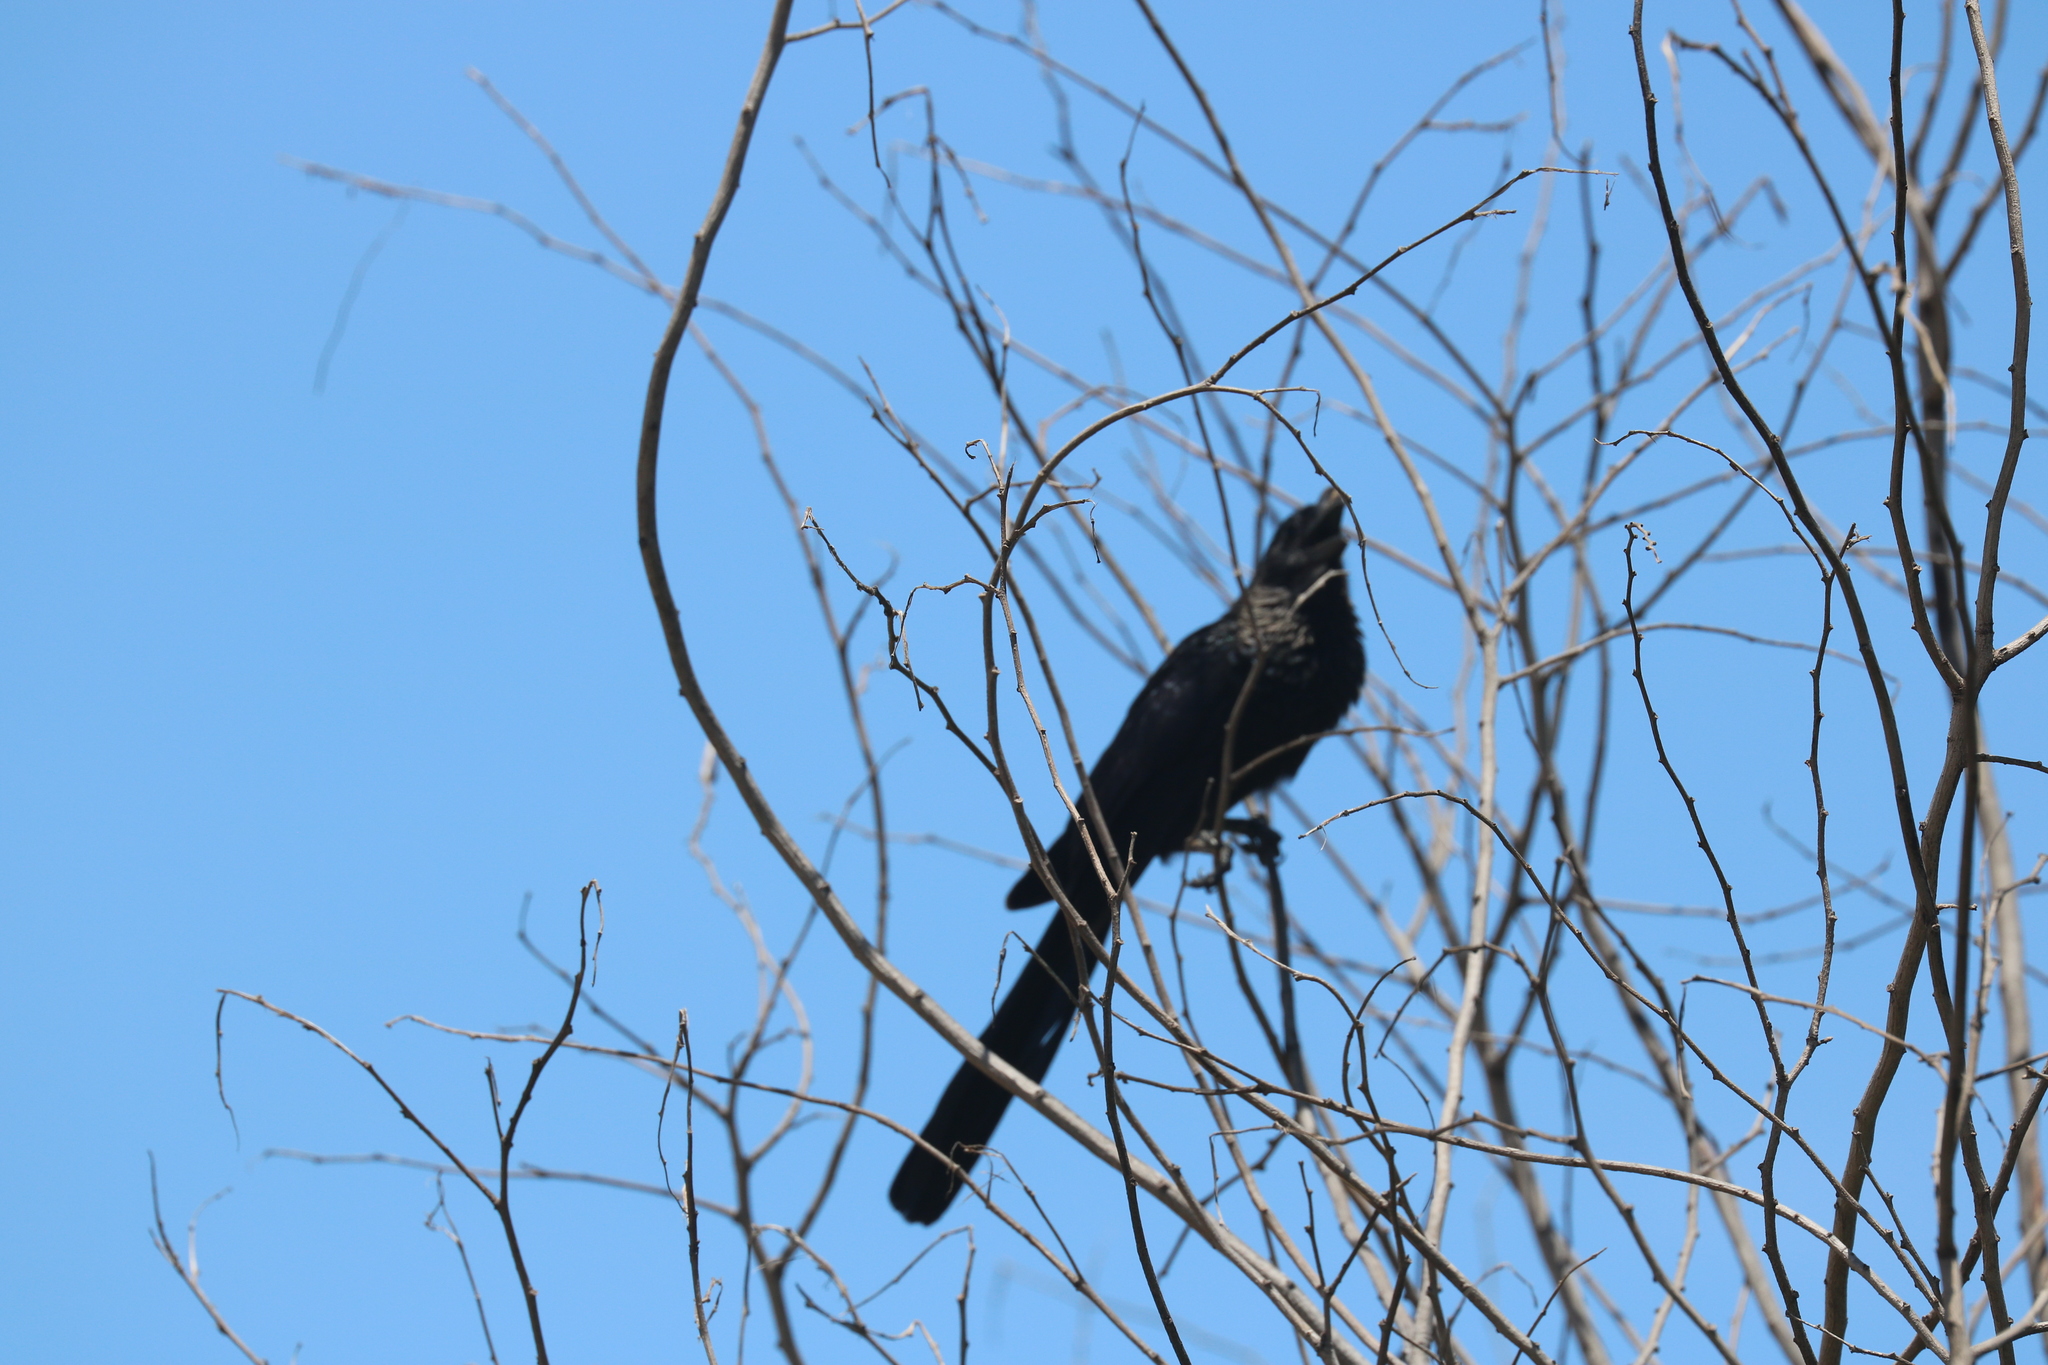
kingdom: Animalia
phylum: Chordata
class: Aves
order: Cuculiformes
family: Cuculidae
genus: Crotophaga
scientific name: Crotophaga ani
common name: Smooth-billed ani
